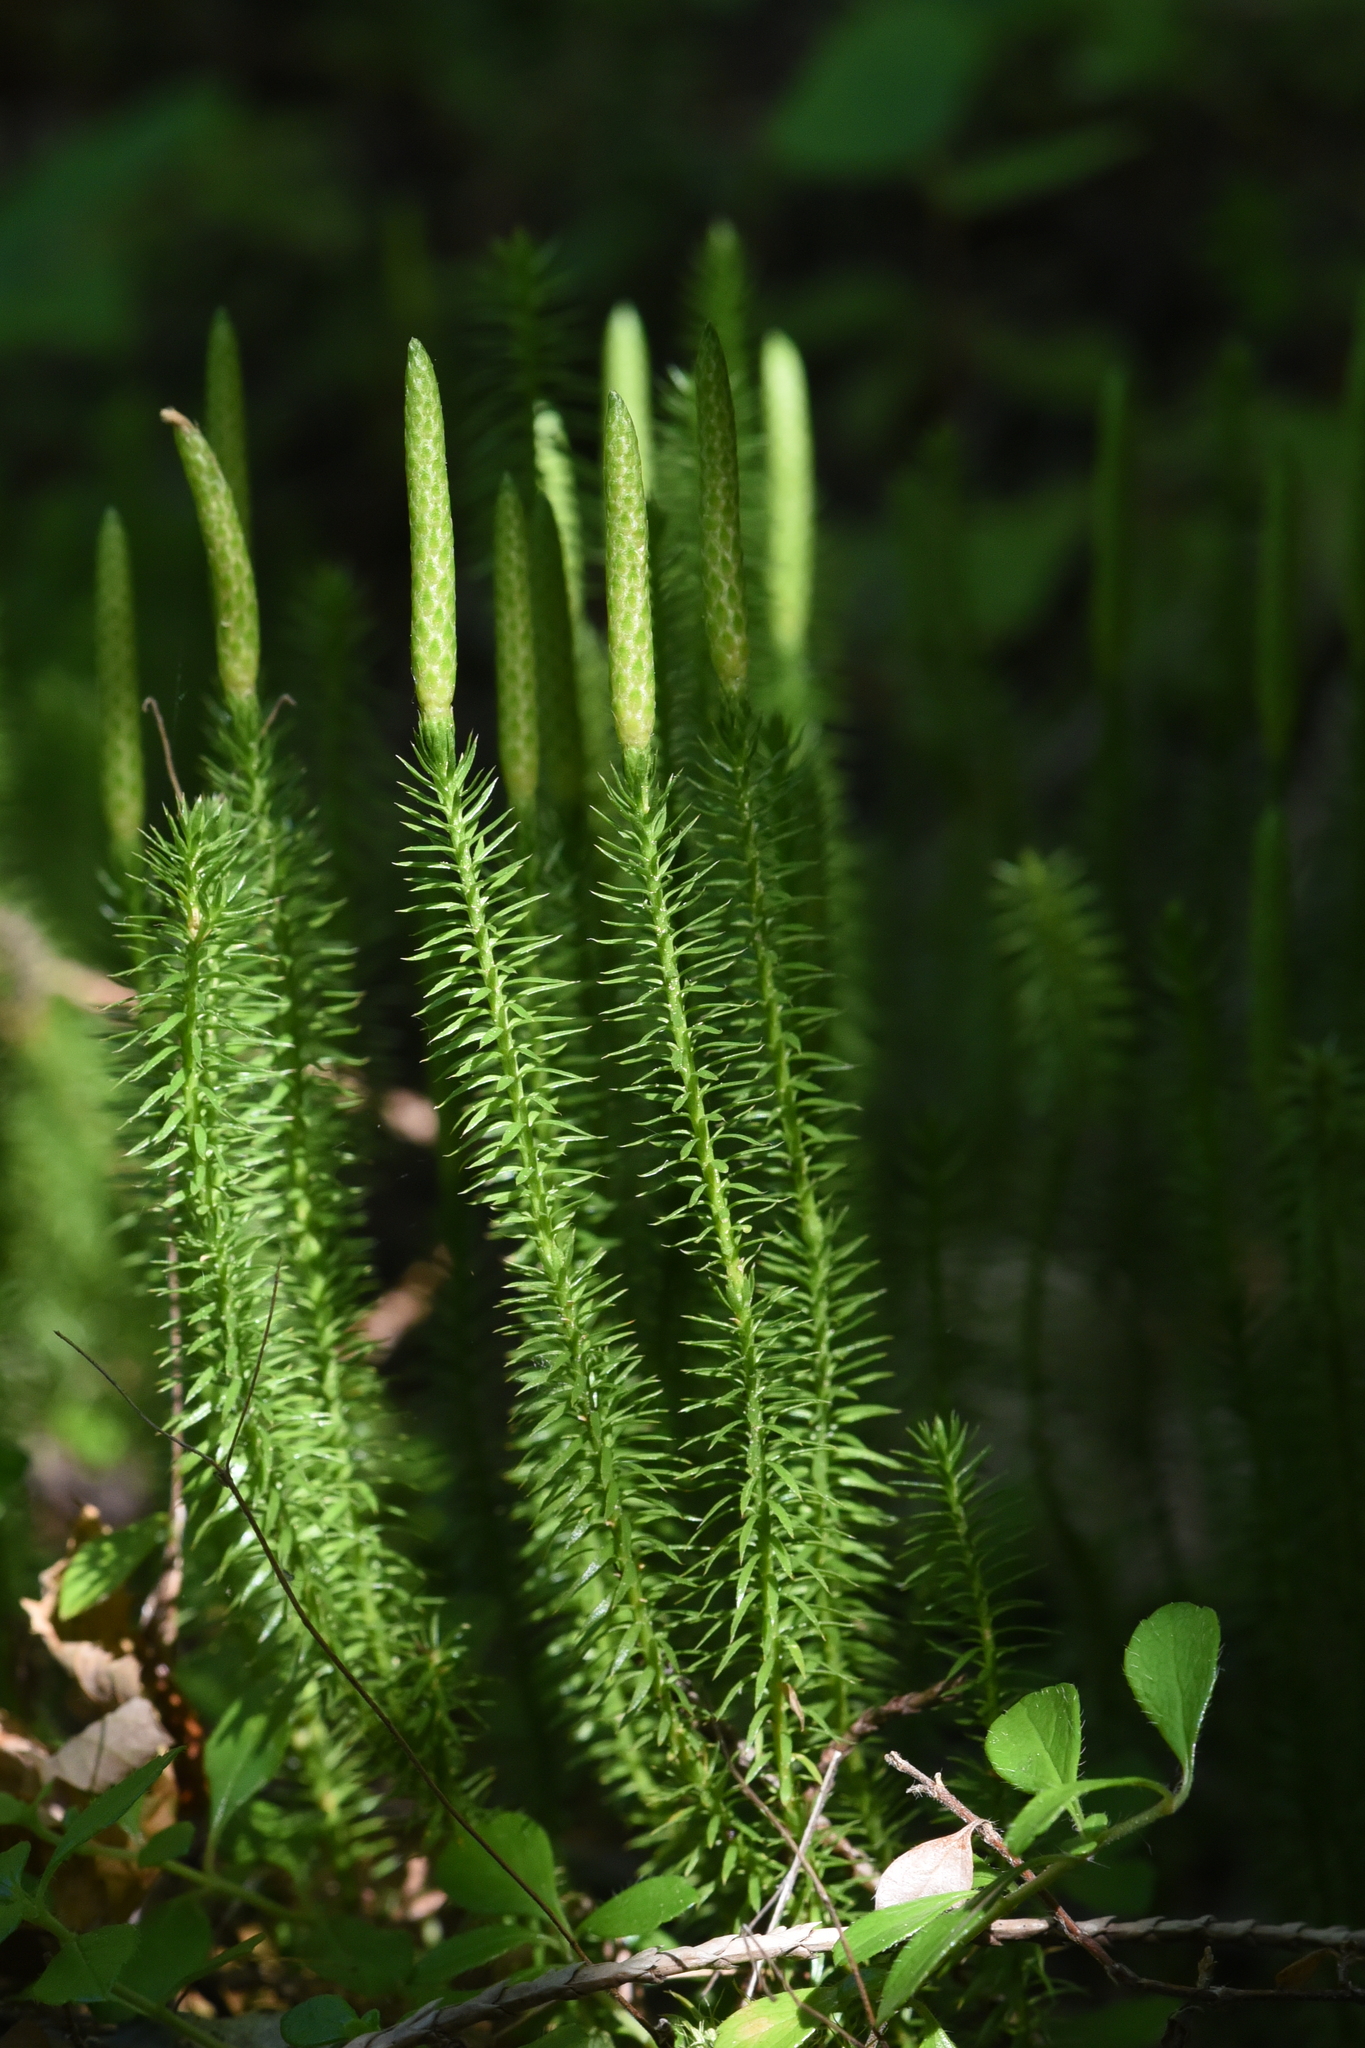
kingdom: Plantae
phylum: Tracheophyta
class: Lycopodiopsida
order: Lycopodiales
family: Lycopodiaceae
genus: Spinulum
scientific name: Spinulum annotinum
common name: Interrupted club-moss
